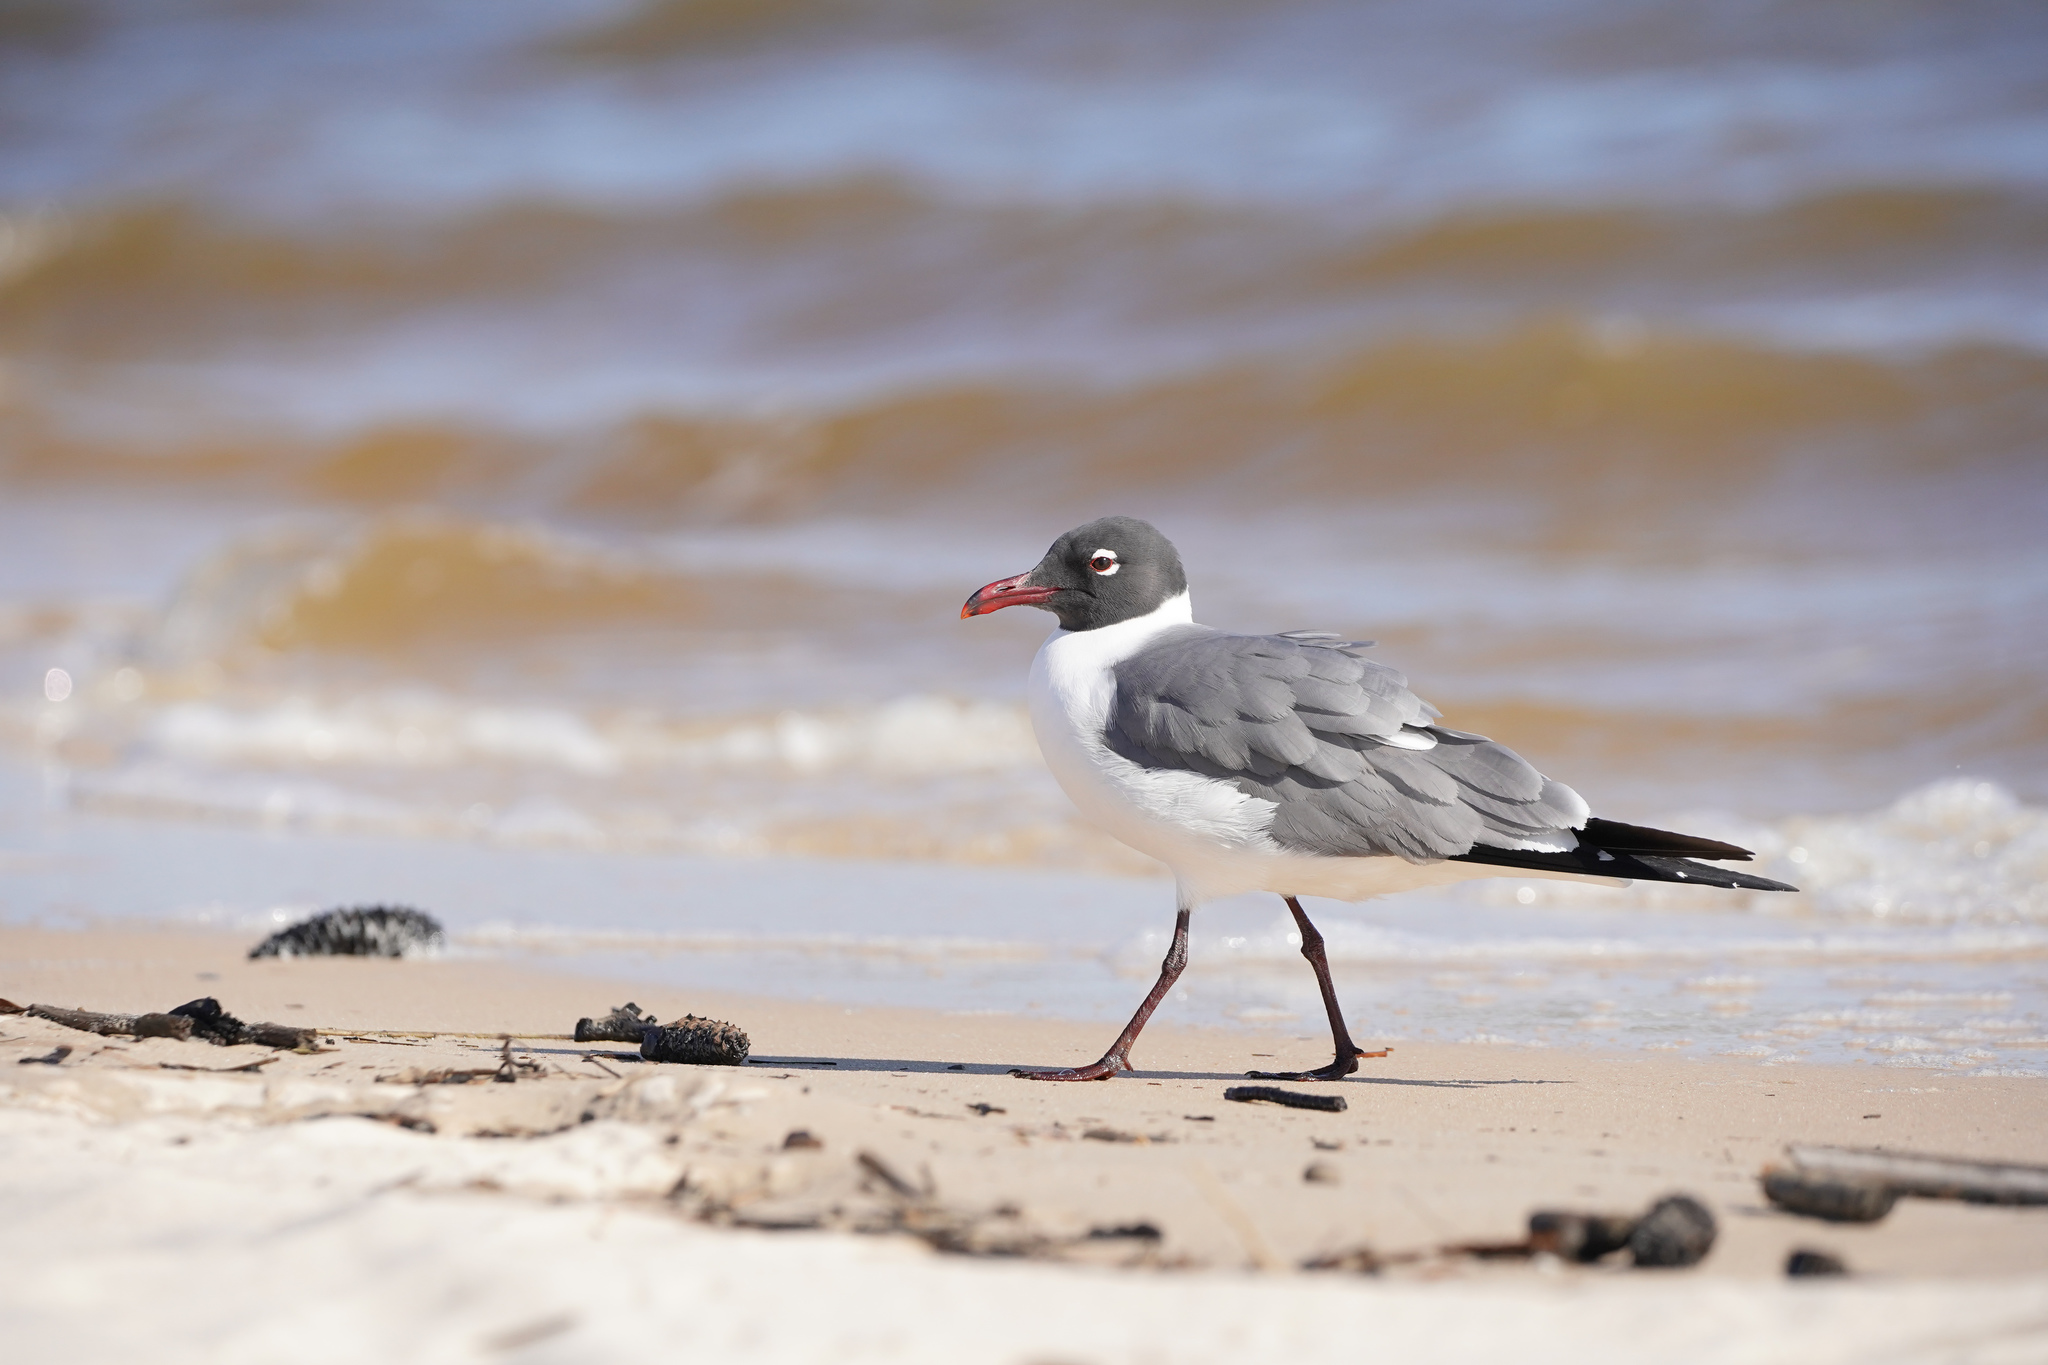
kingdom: Animalia
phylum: Chordata
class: Aves
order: Charadriiformes
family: Laridae
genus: Leucophaeus
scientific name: Leucophaeus atricilla
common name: Laughing gull
